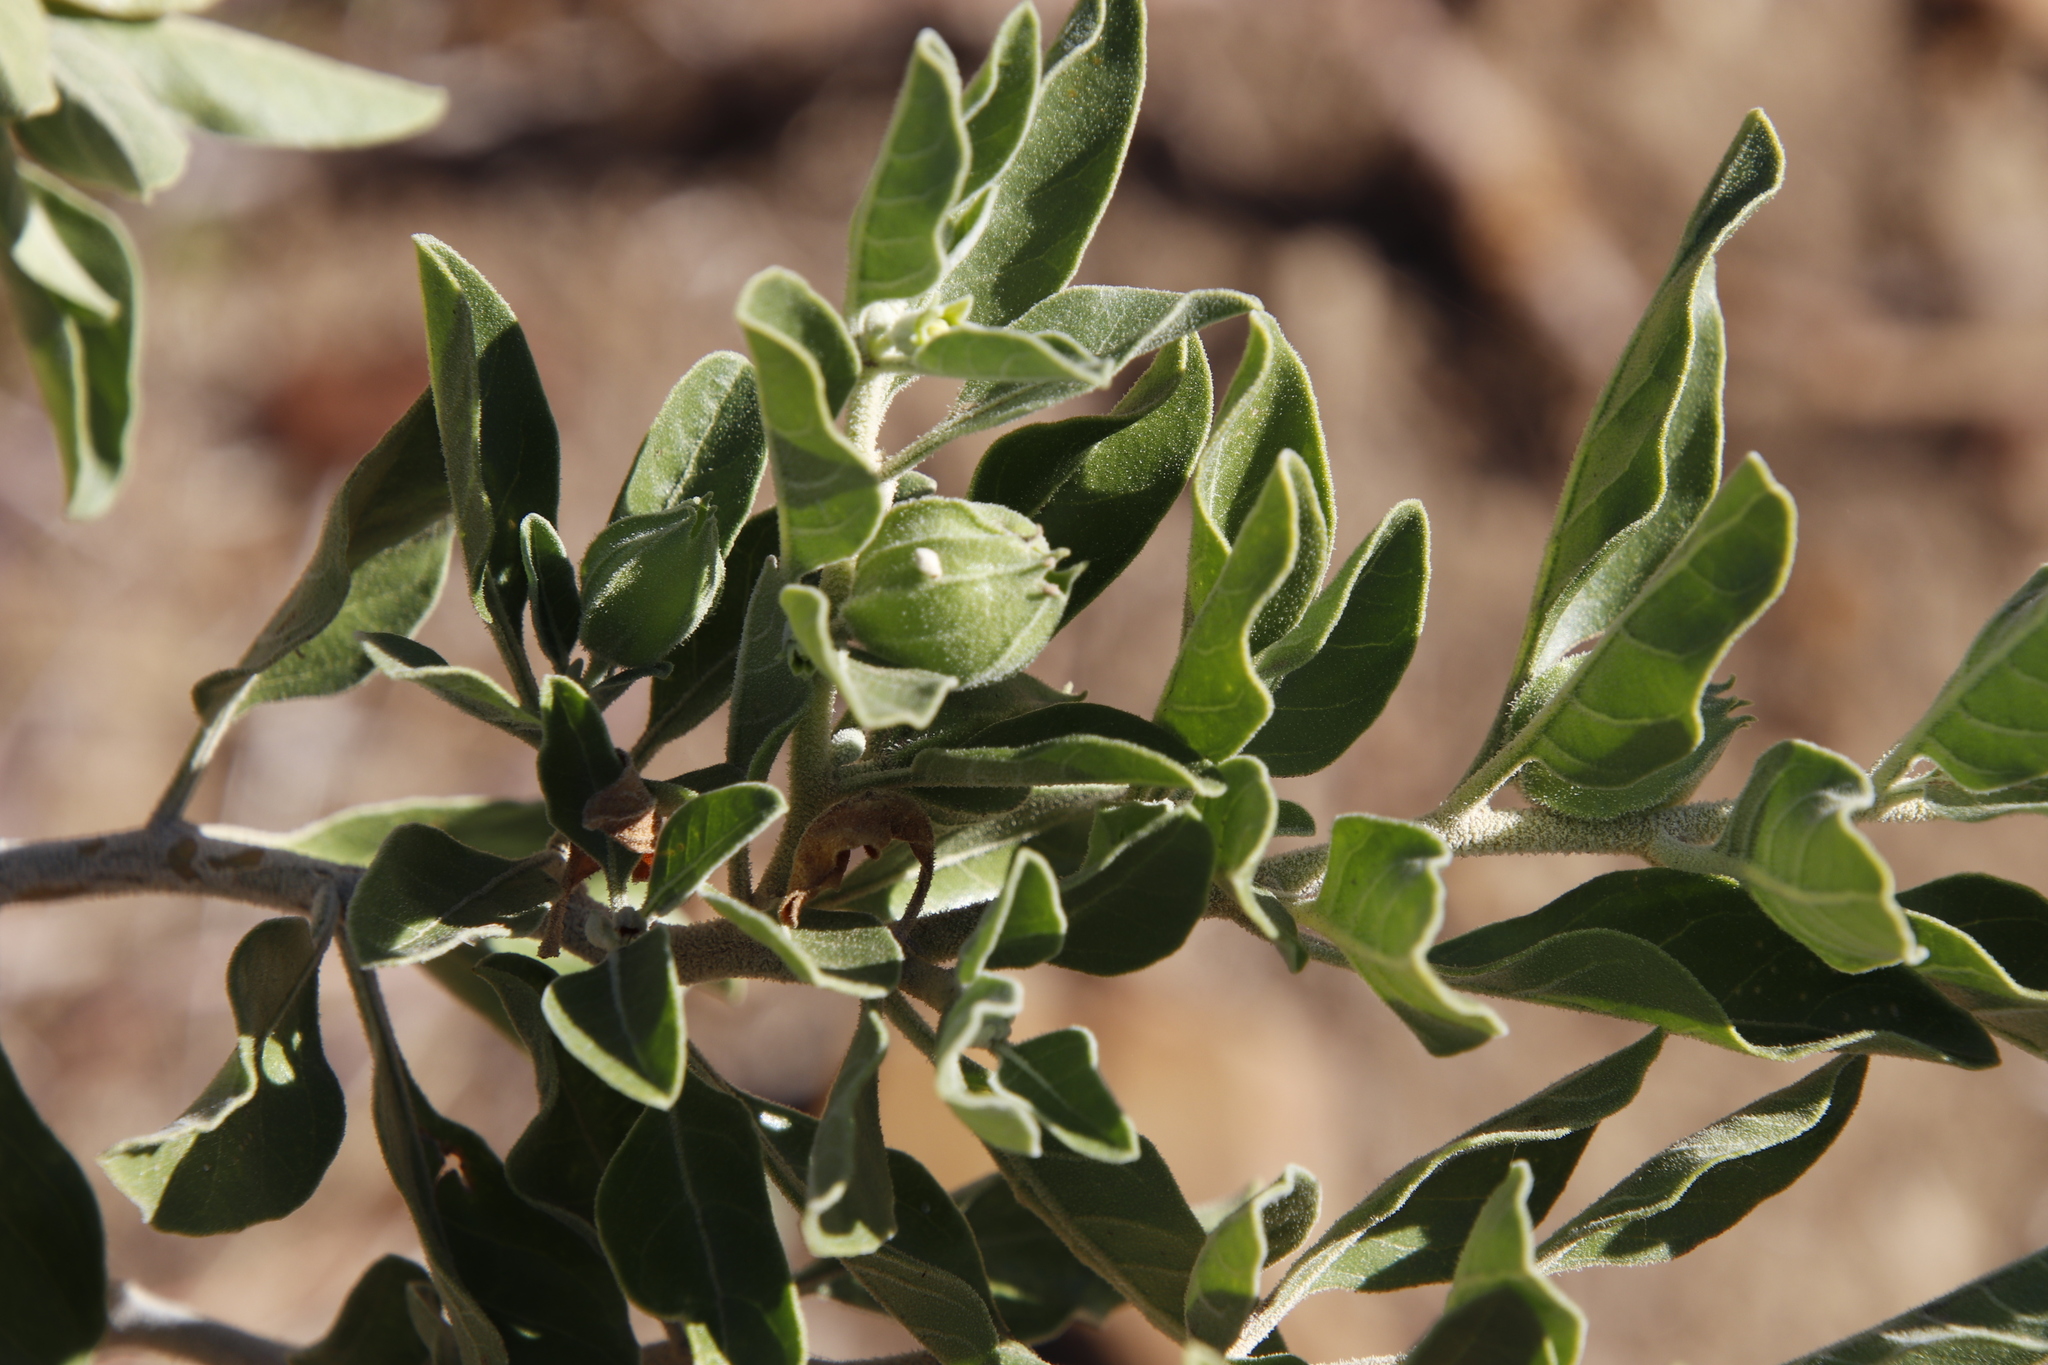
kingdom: Plantae
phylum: Tracheophyta
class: Magnoliopsida
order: Solanales
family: Solanaceae
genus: Physalis
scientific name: Physalis viscosa
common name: Stellate ground-cherry
